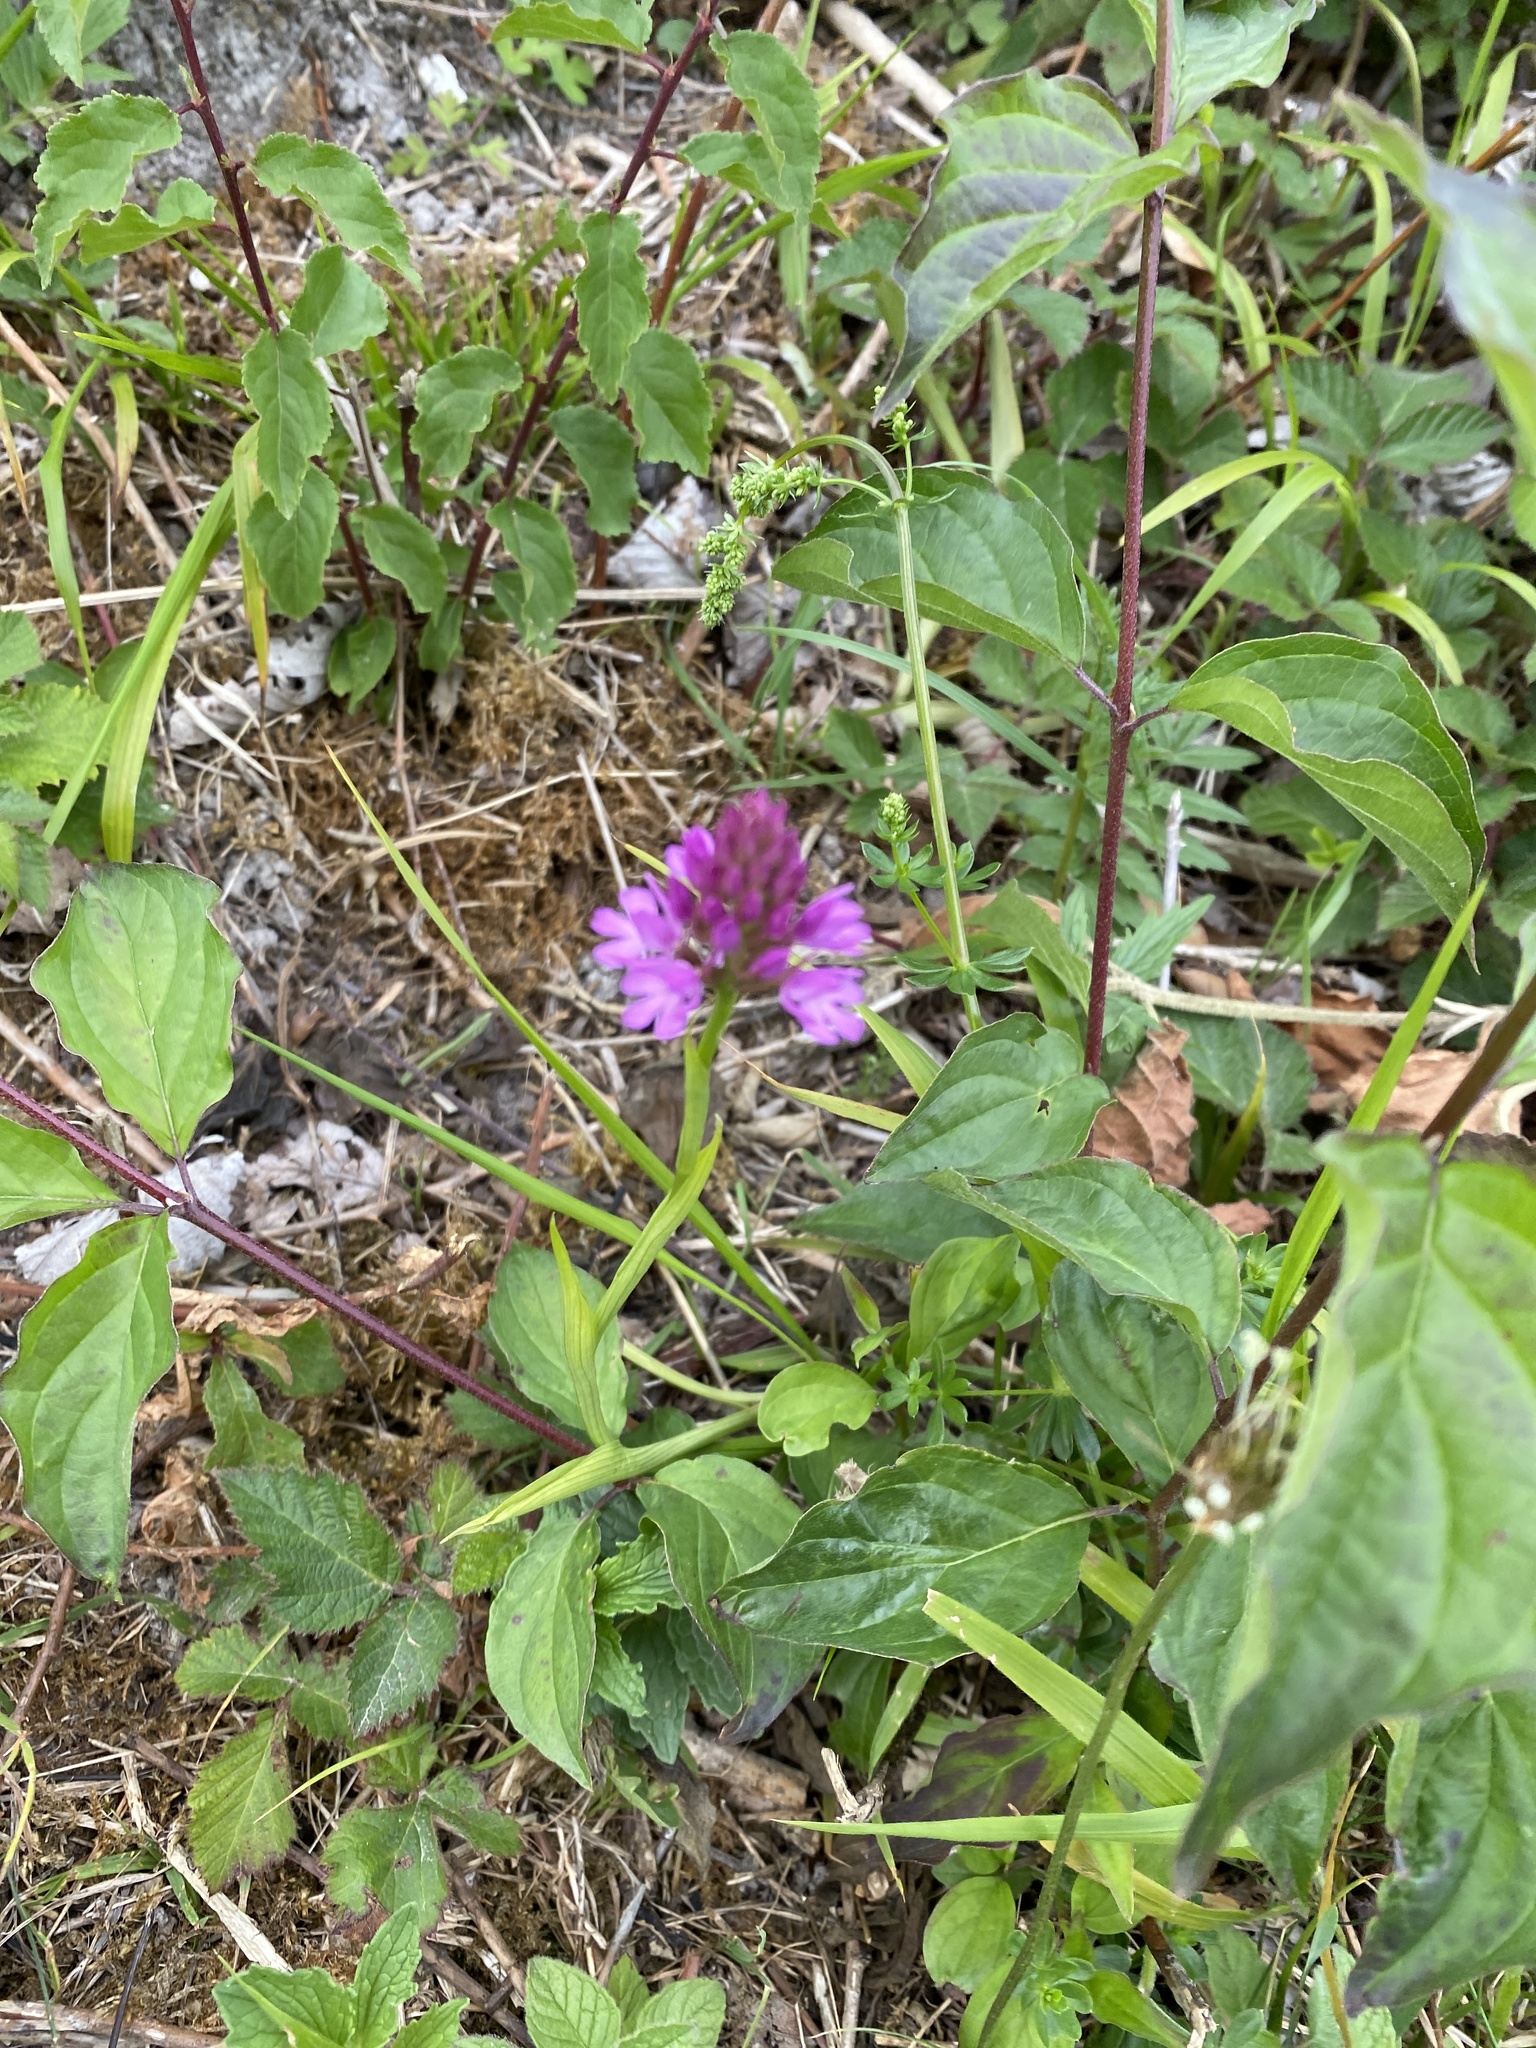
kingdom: Plantae
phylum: Tracheophyta
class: Liliopsida
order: Asparagales
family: Orchidaceae
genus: Anacamptis
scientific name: Anacamptis pyramidalis
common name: Pyramidal orchid
